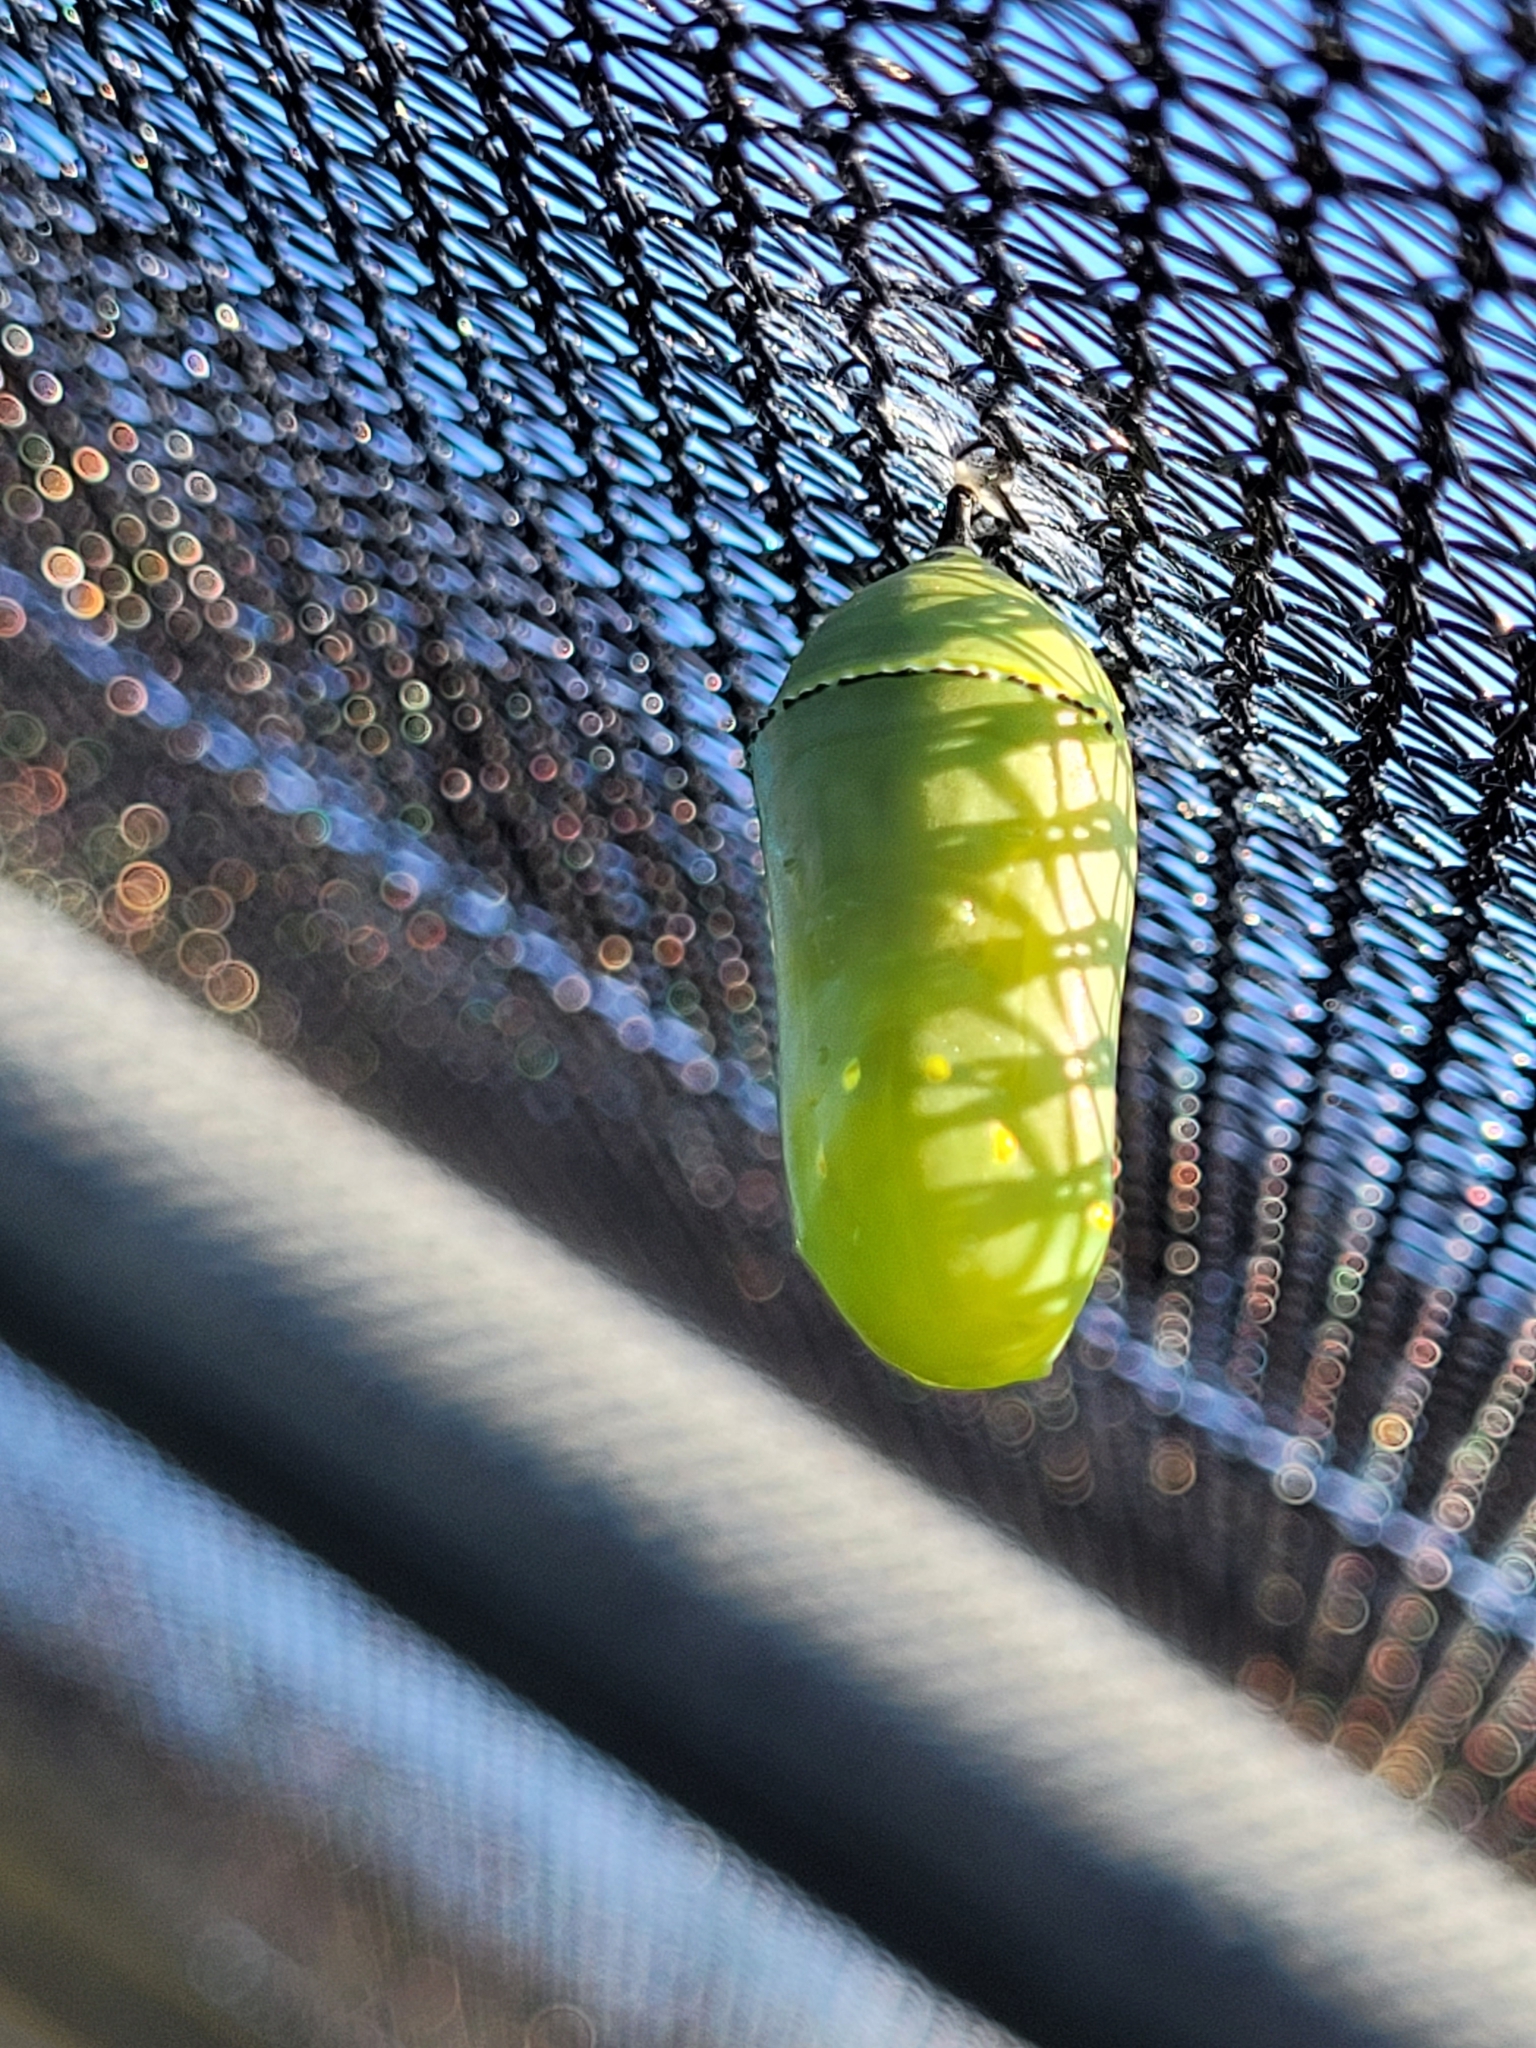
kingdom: Animalia
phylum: Arthropoda
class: Insecta
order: Lepidoptera
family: Nymphalidae
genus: Danaus
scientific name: Danaus plexippus
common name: Monarch
